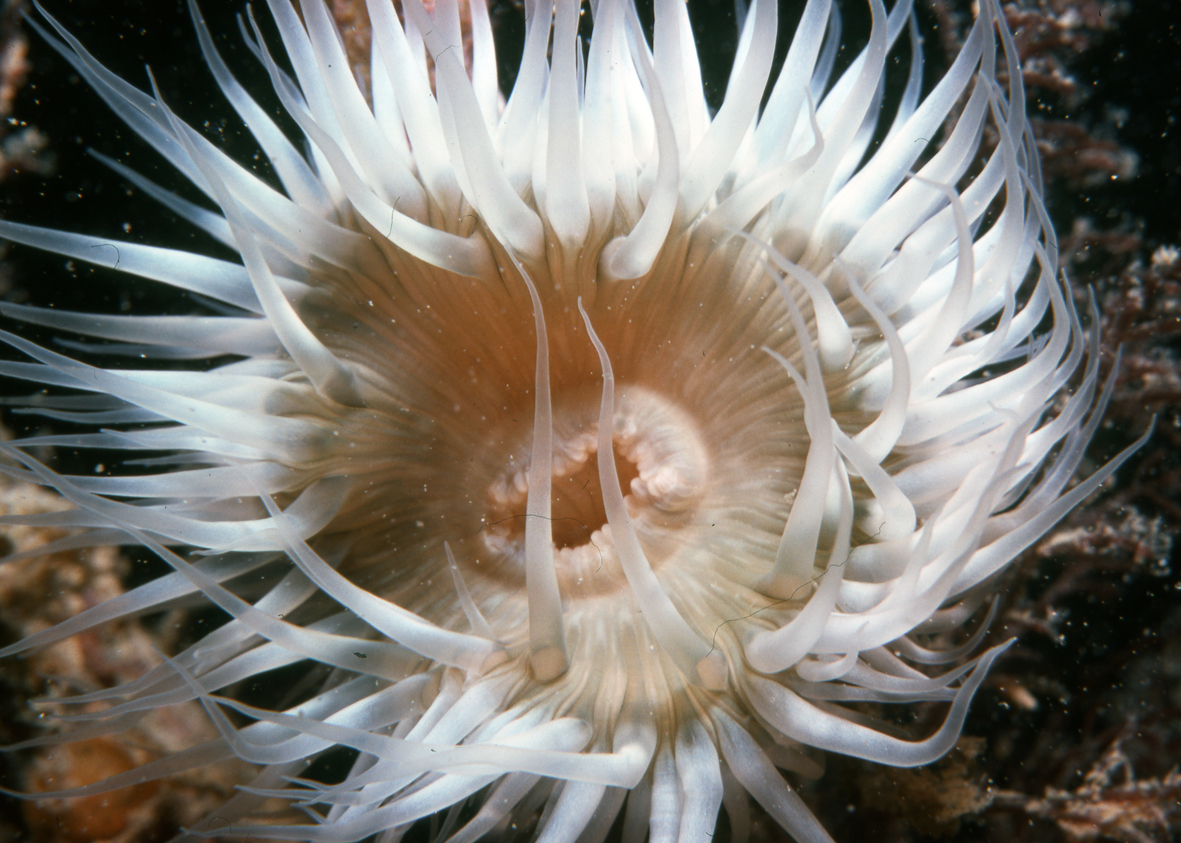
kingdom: Animalia
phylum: Cnidaria
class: Anthozoa
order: Actiniaria
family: Sagartiidae
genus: Anthothoe
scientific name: Anthothoe albocincta
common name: Orange striped anemone
